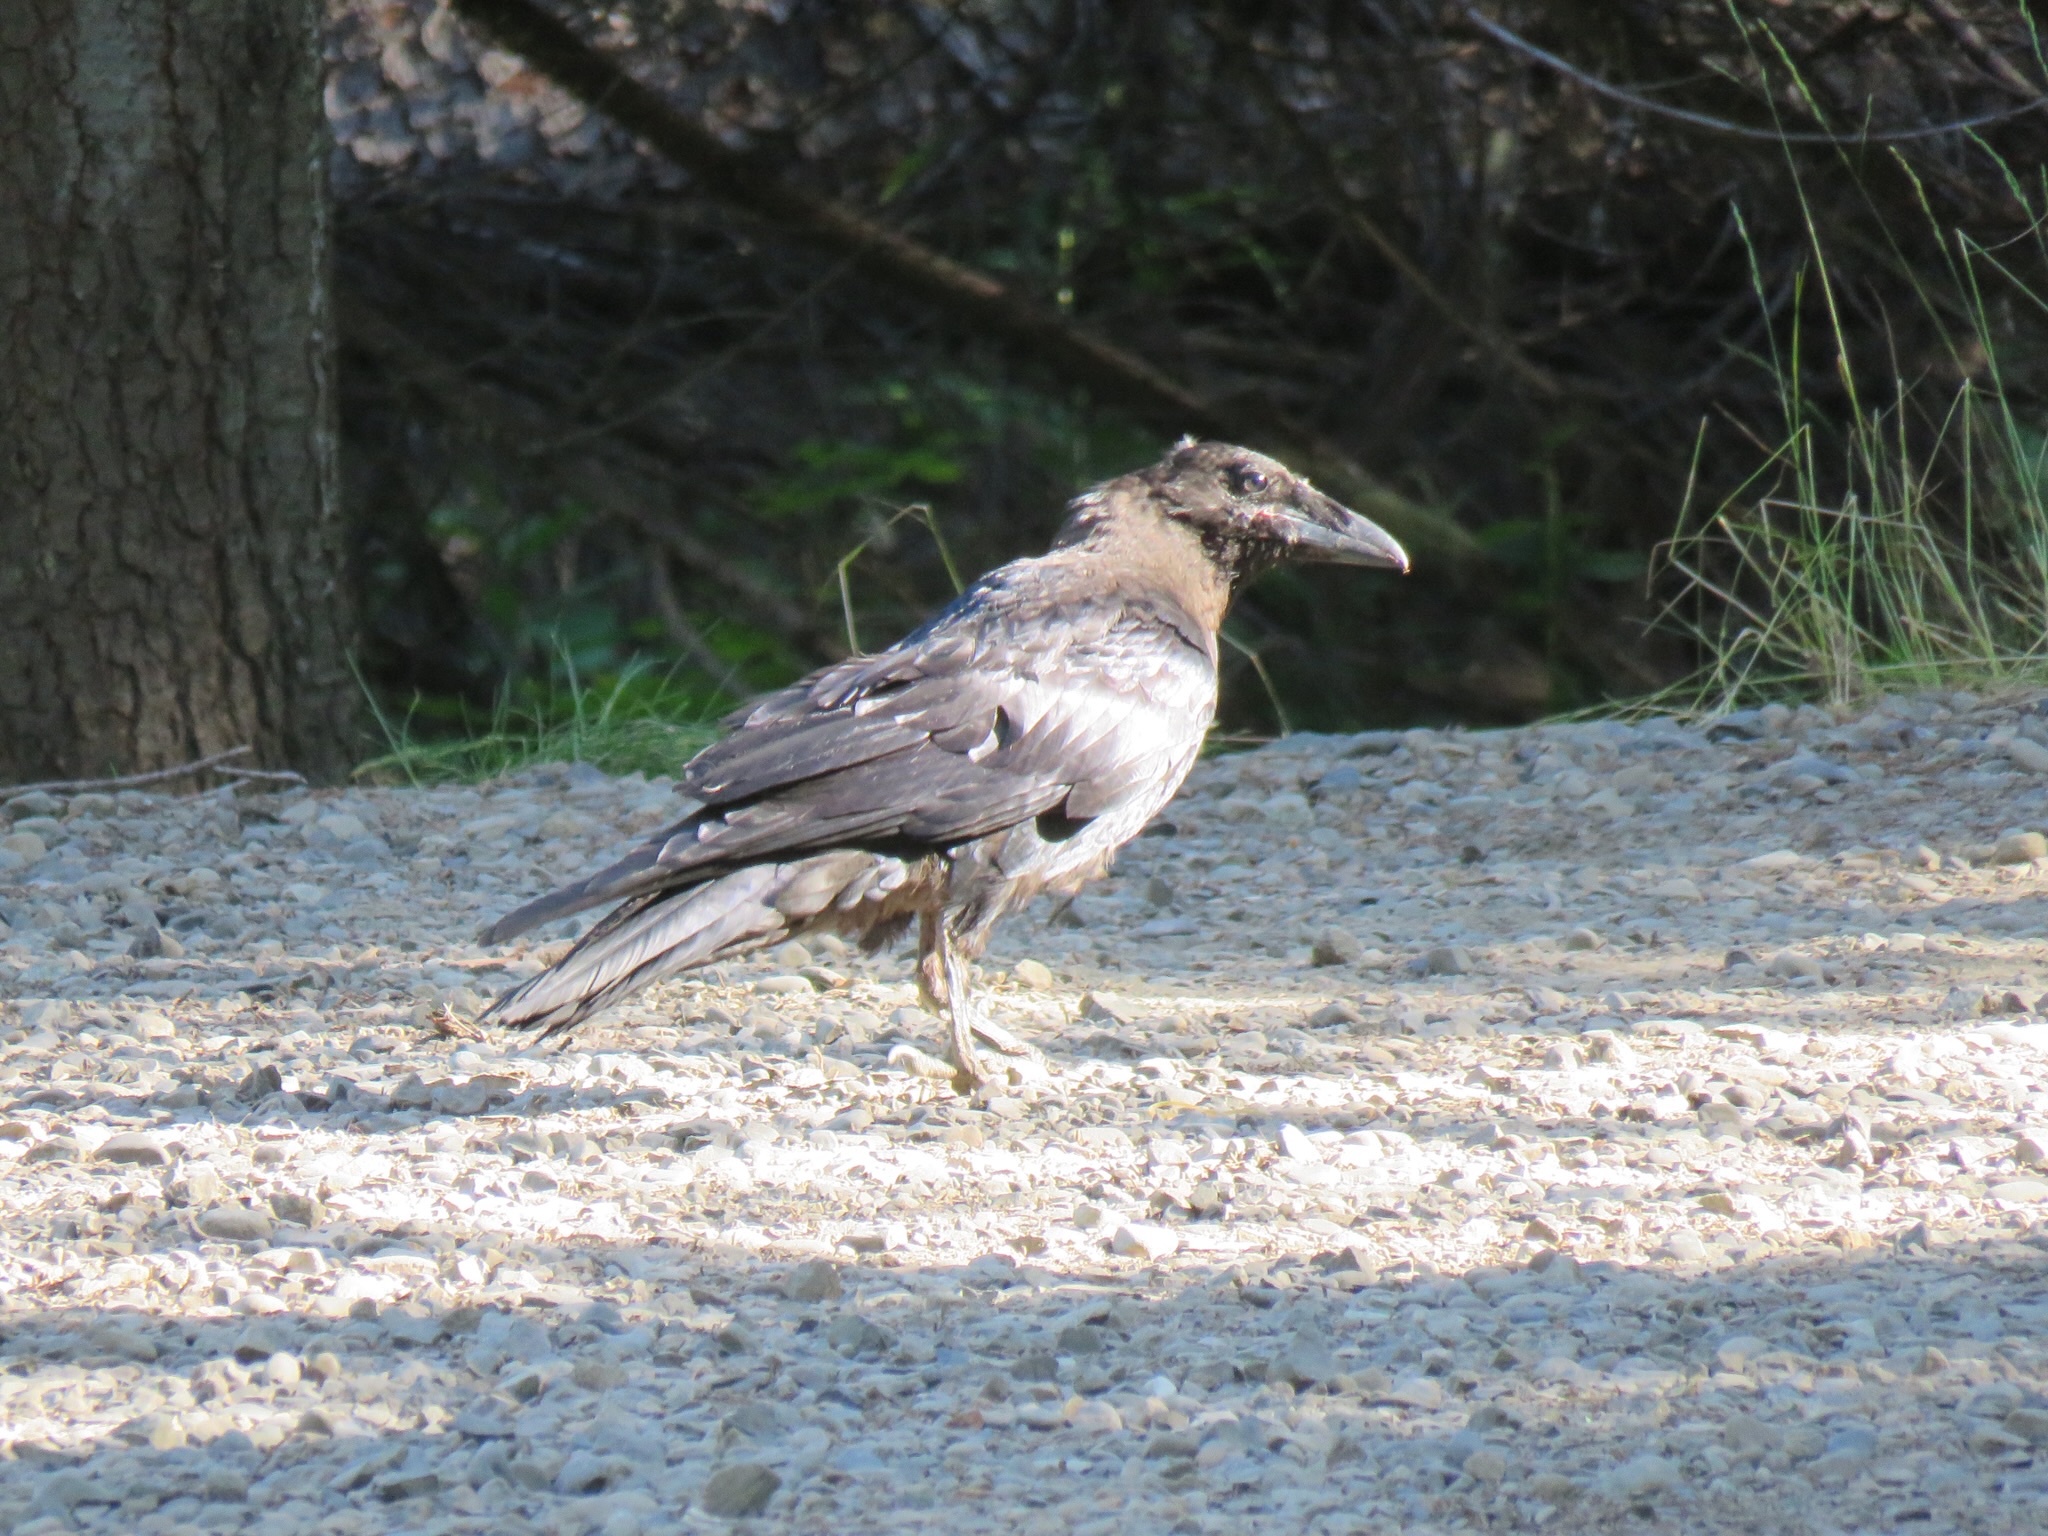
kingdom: Animalia
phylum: Chordata
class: Aves
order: Passeriformes
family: Corvidae
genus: Corvus
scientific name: Corvus corax
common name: Common raven
